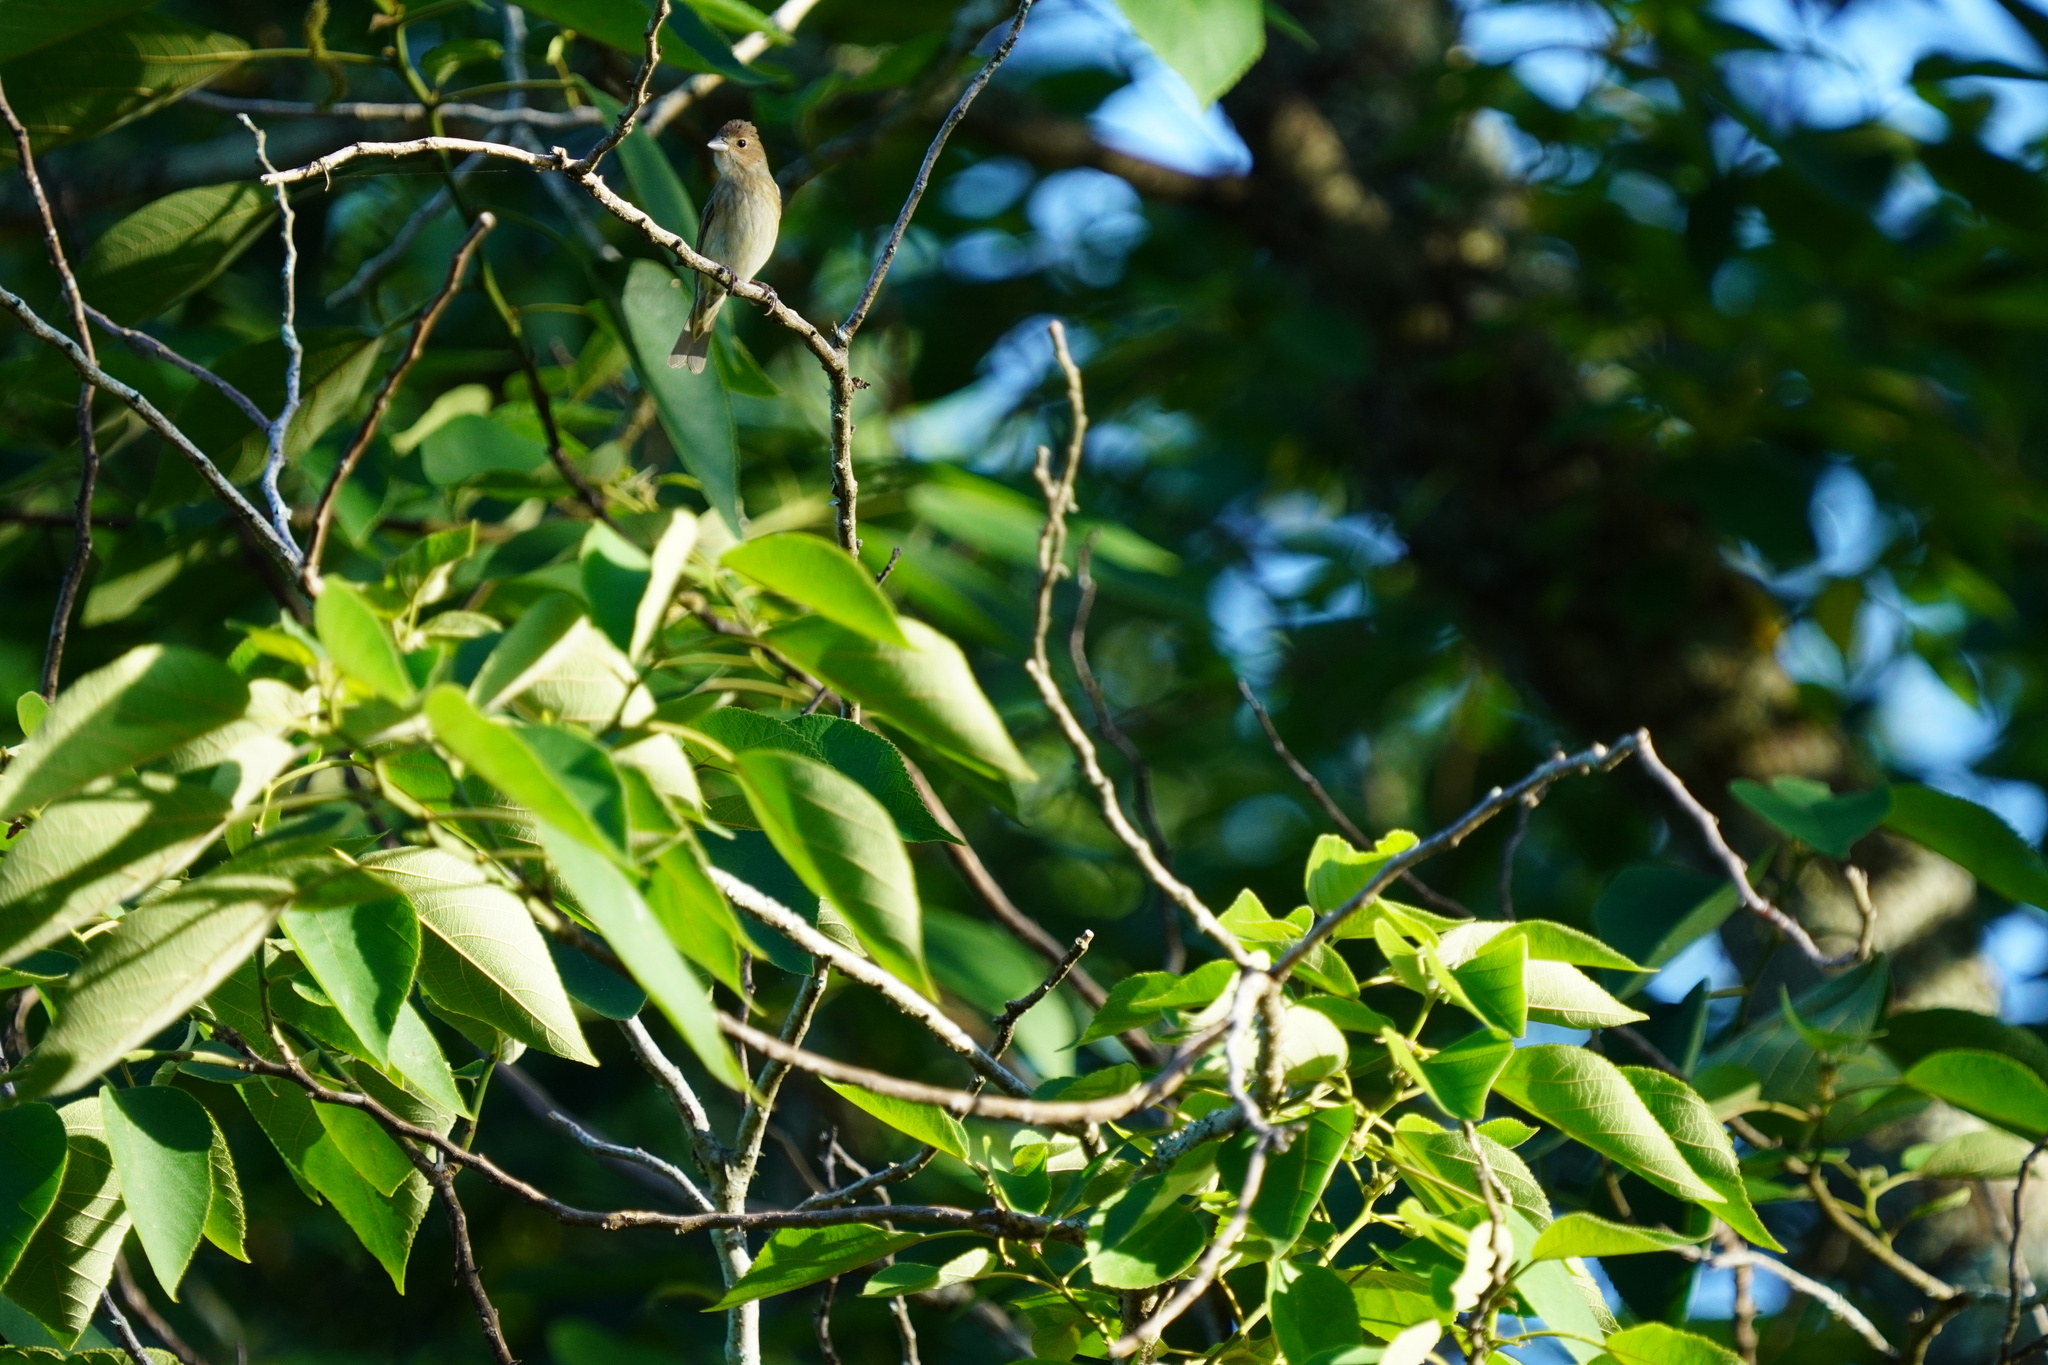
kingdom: Animalia
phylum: Chordata
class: Aves
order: Passeriformes
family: Cardinalidae
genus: Passerina
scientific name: Passerina cyanea
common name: Indigo bunting
